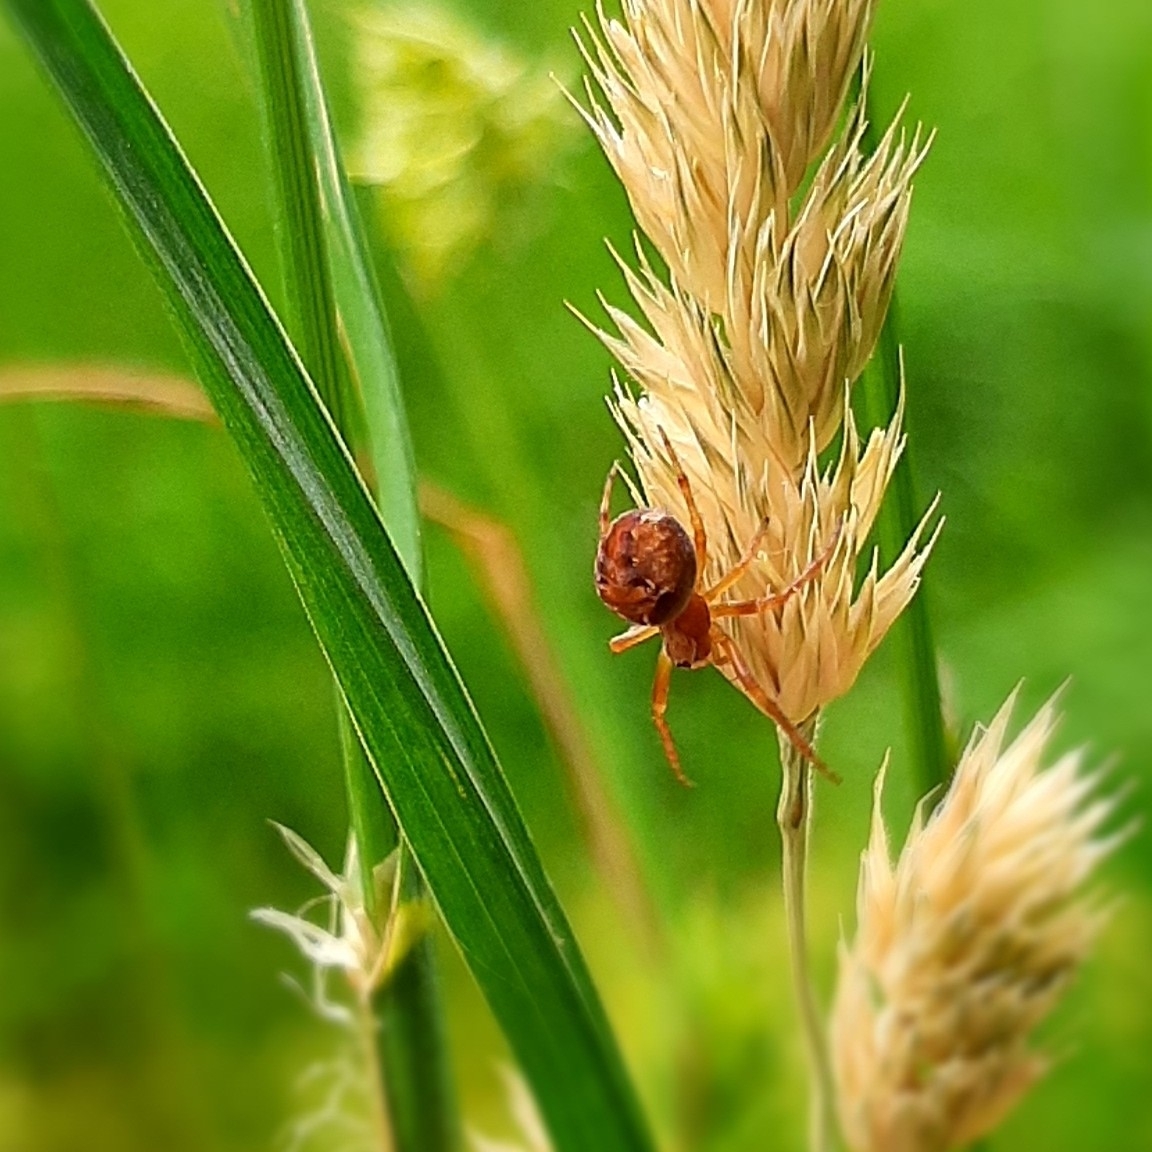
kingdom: Animalia
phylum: Arthropoda
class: Arachnida
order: Araneae
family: Araneidae
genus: Araneus
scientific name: Araneus
